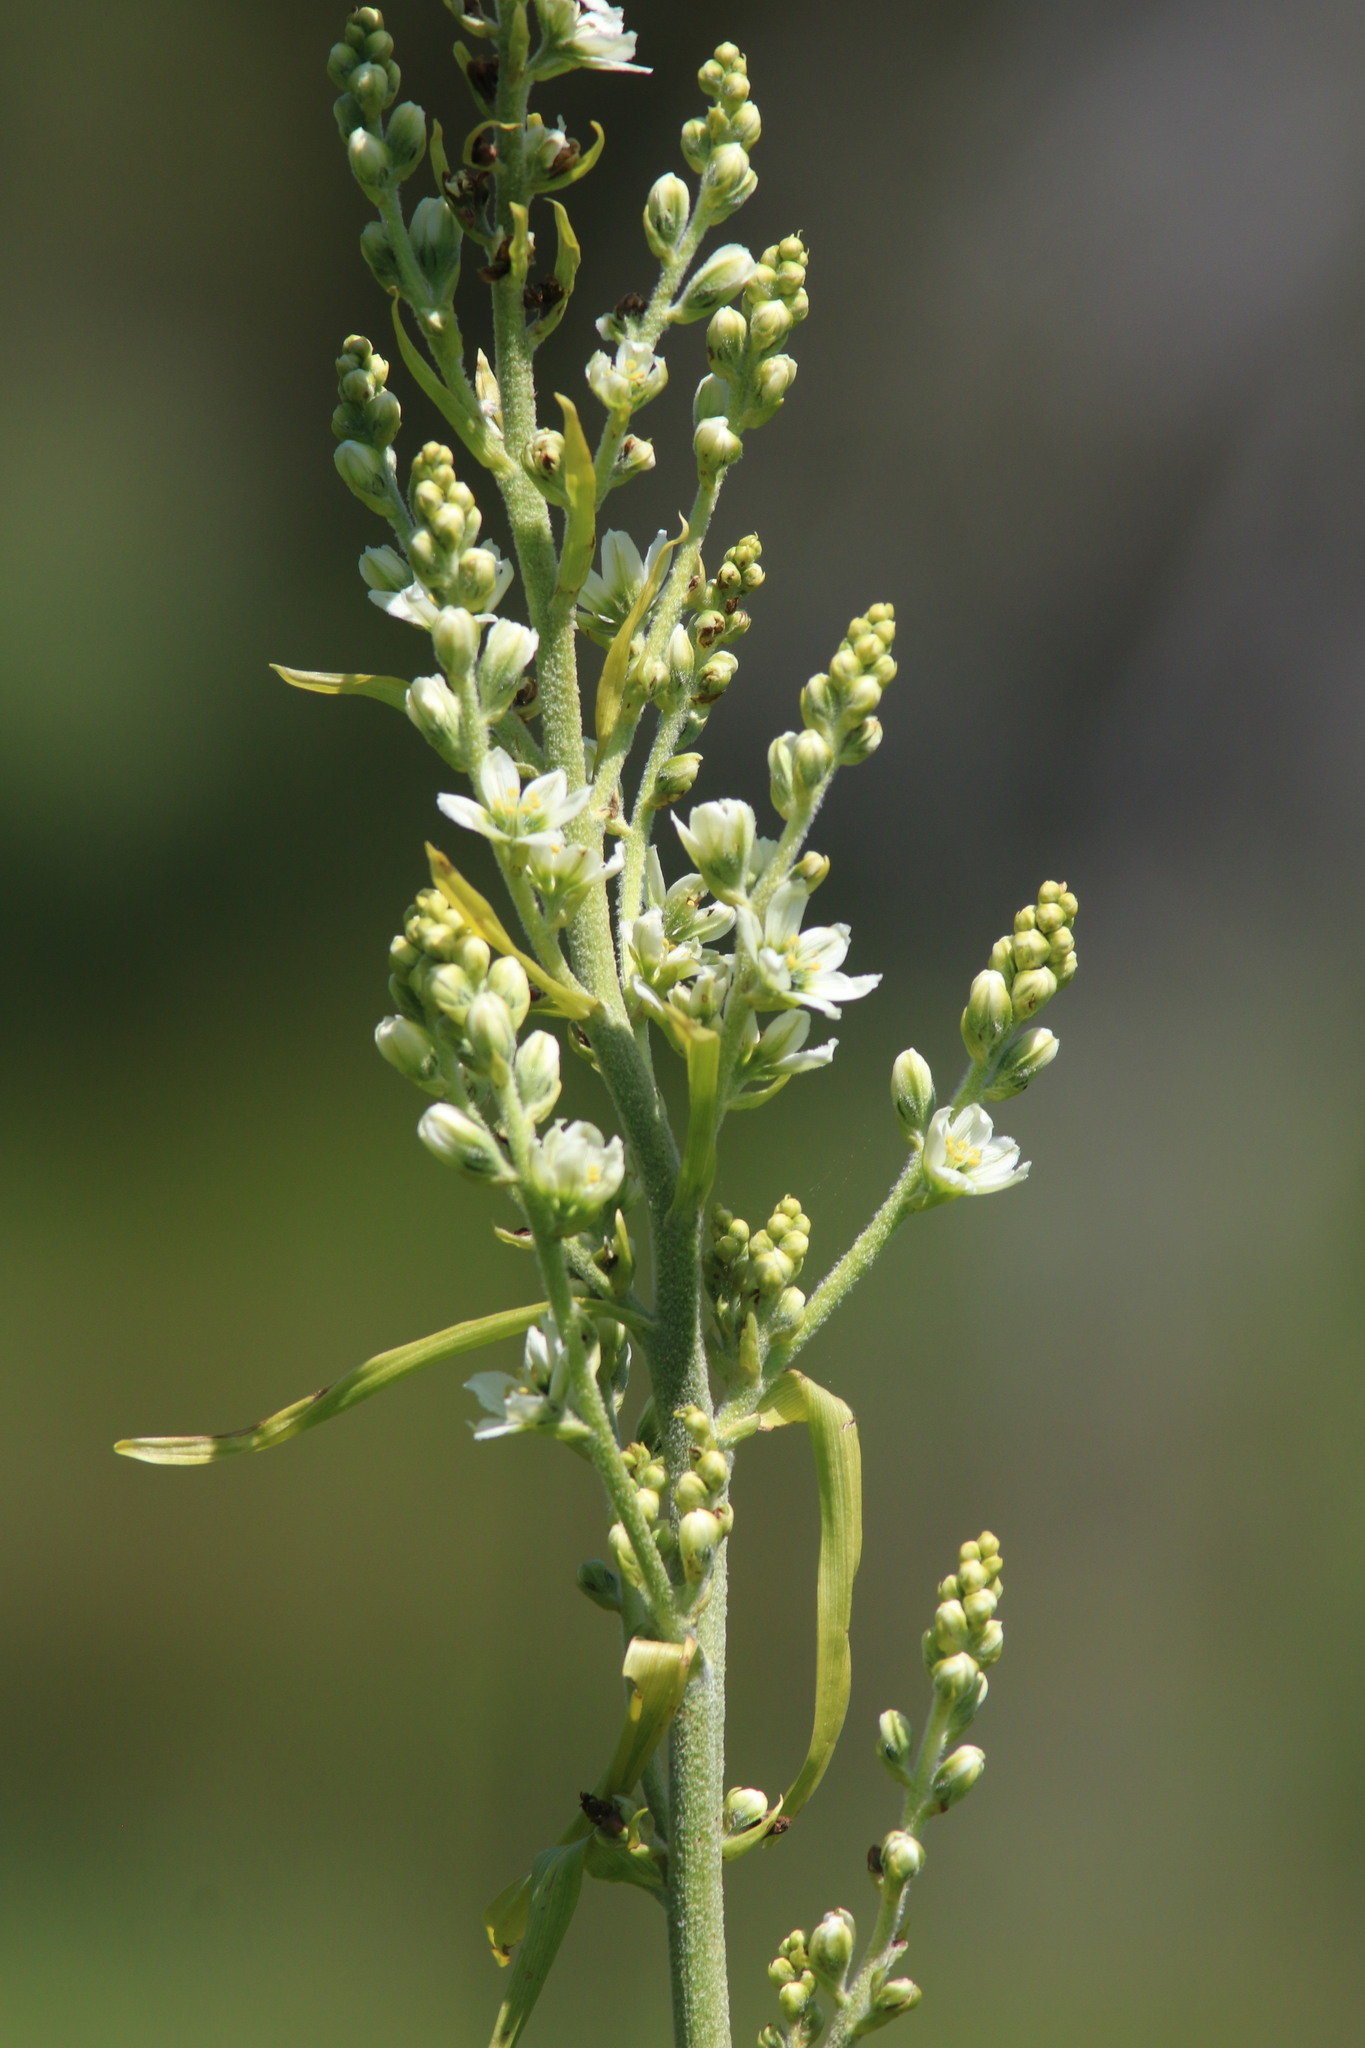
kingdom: Plantae
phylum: Tracheophyta
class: Liliopsida
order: Liliales
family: Melanthiaceae
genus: Veratrum
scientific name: Veratrum californicum
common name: California veratrum
